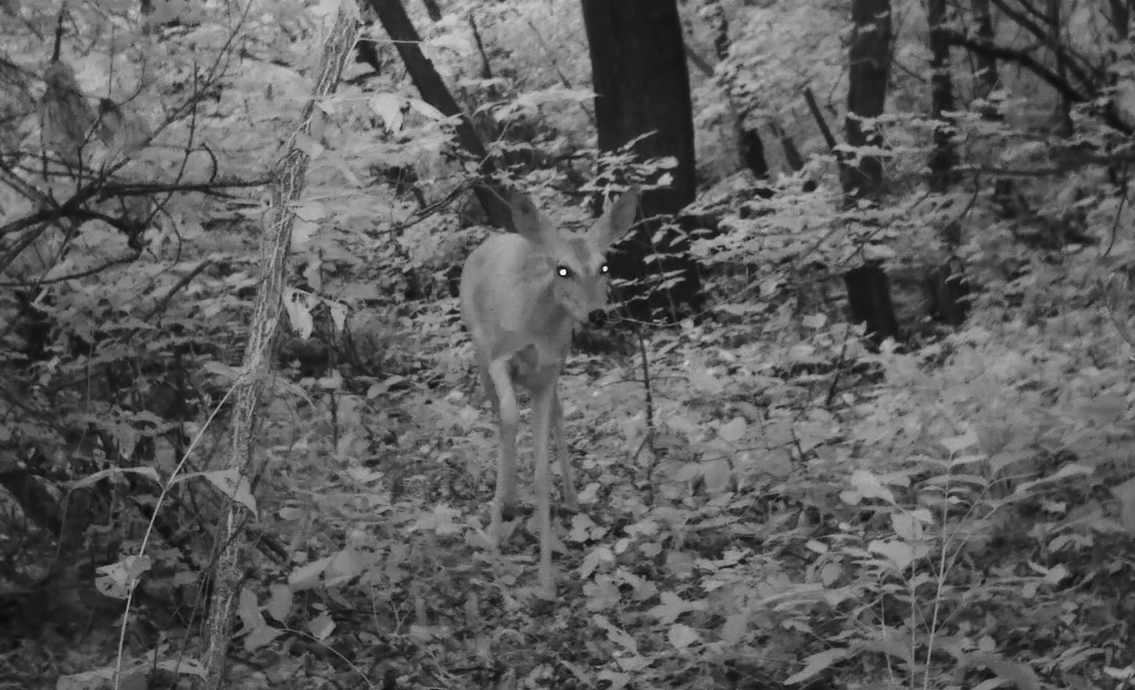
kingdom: Animalia
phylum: Chordata
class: Mammalia
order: Artiodactyla
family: Cervidae
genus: Capreolus
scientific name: Capreolus pygargus
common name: Siberian roe
